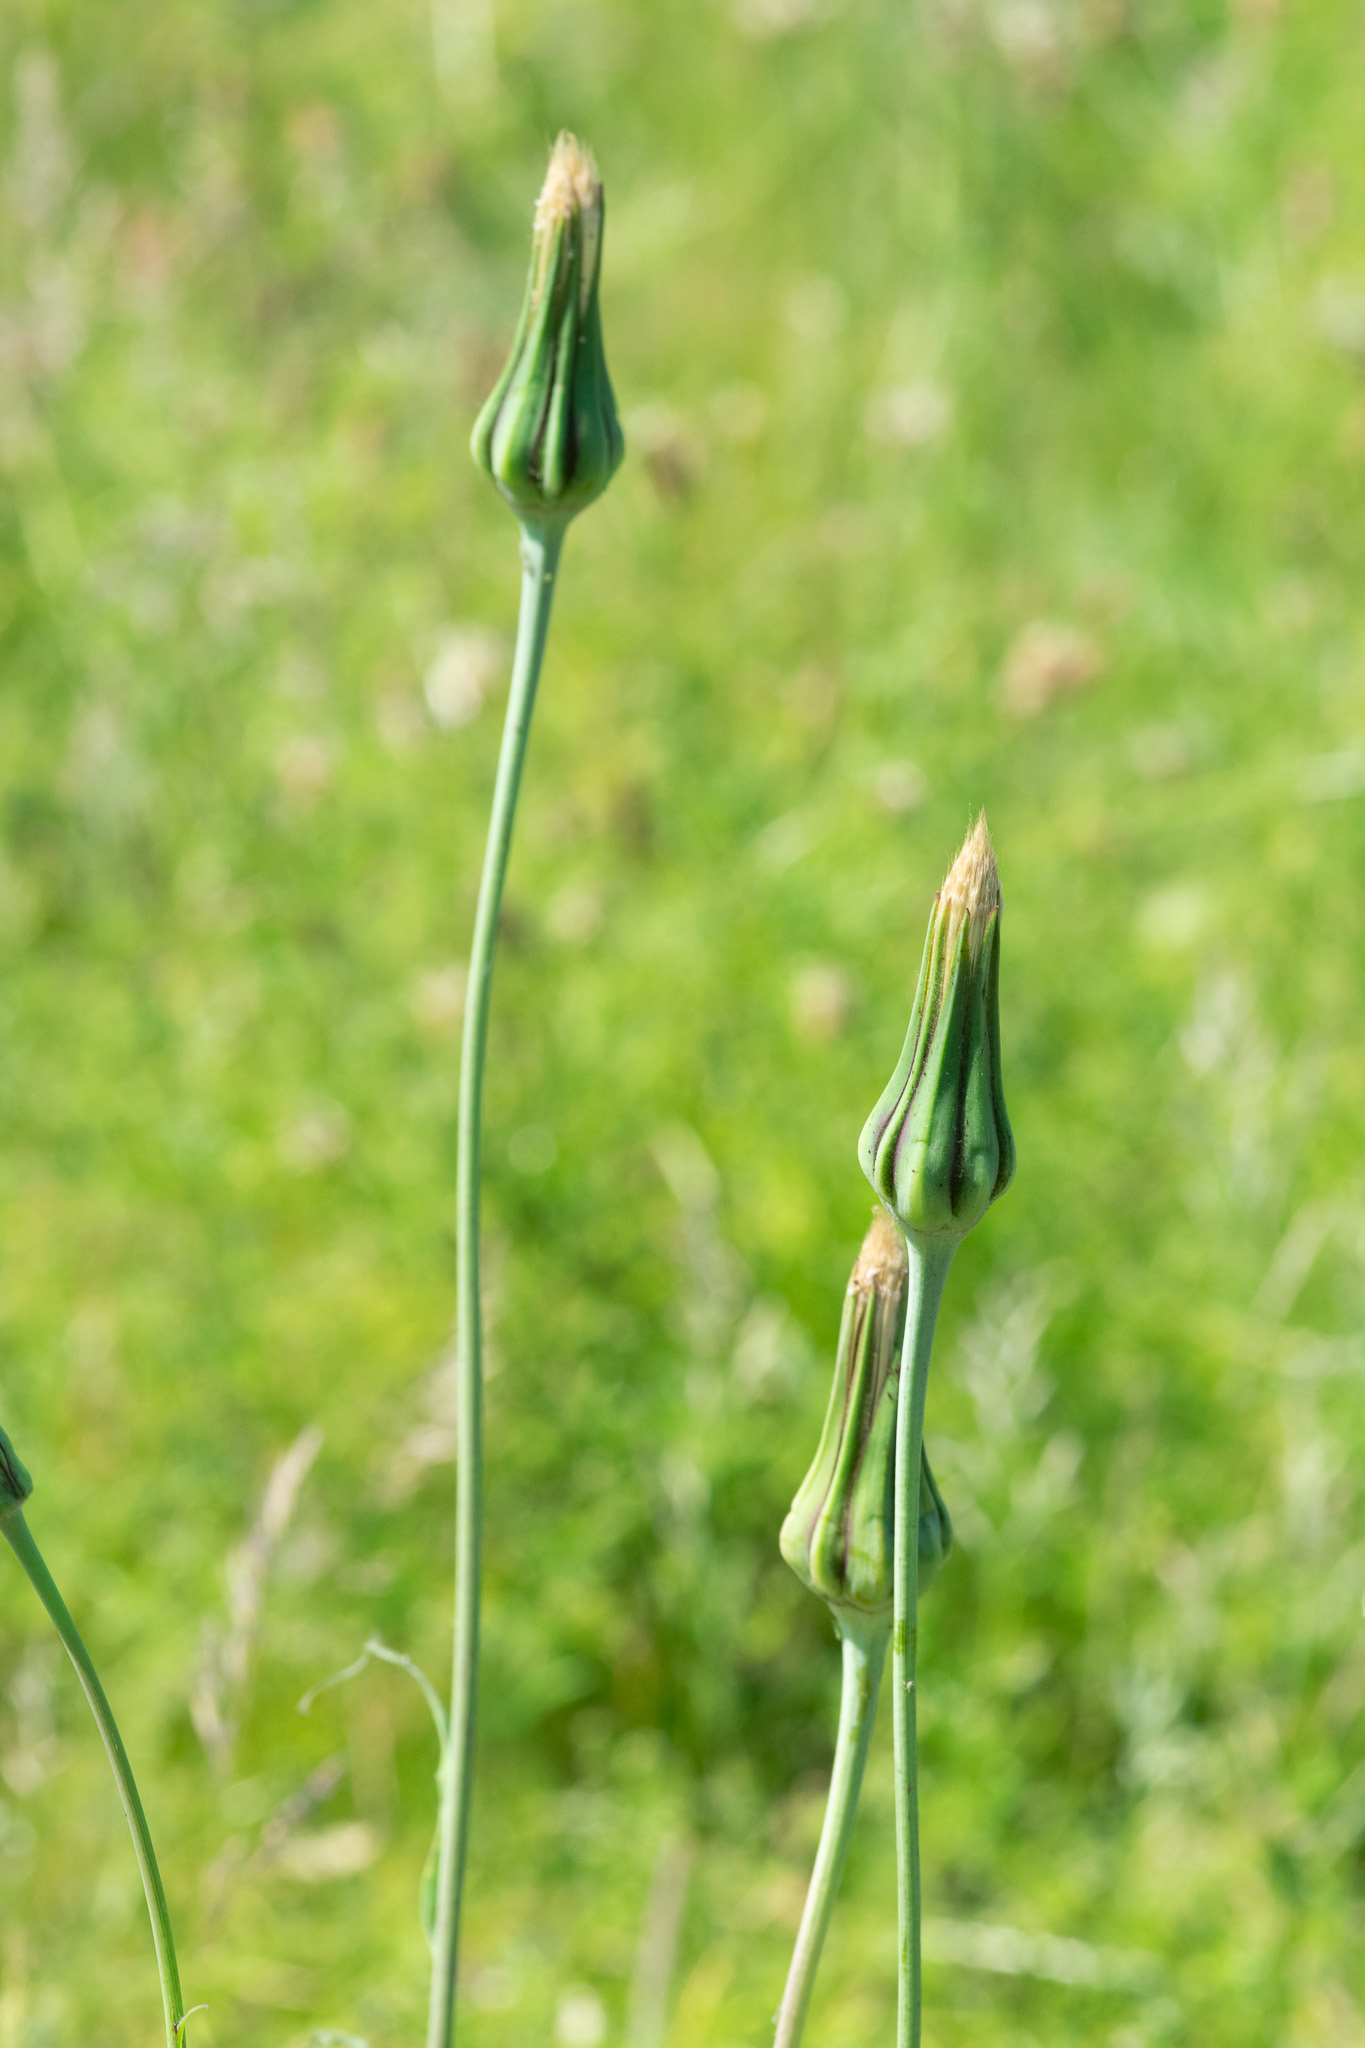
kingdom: Plantae
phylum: Tracheophyta
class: Magnoliopsida
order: Asterales
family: Asteraceae
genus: Tragopogon
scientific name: Tragopogon pratensis
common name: Goat's-beard
